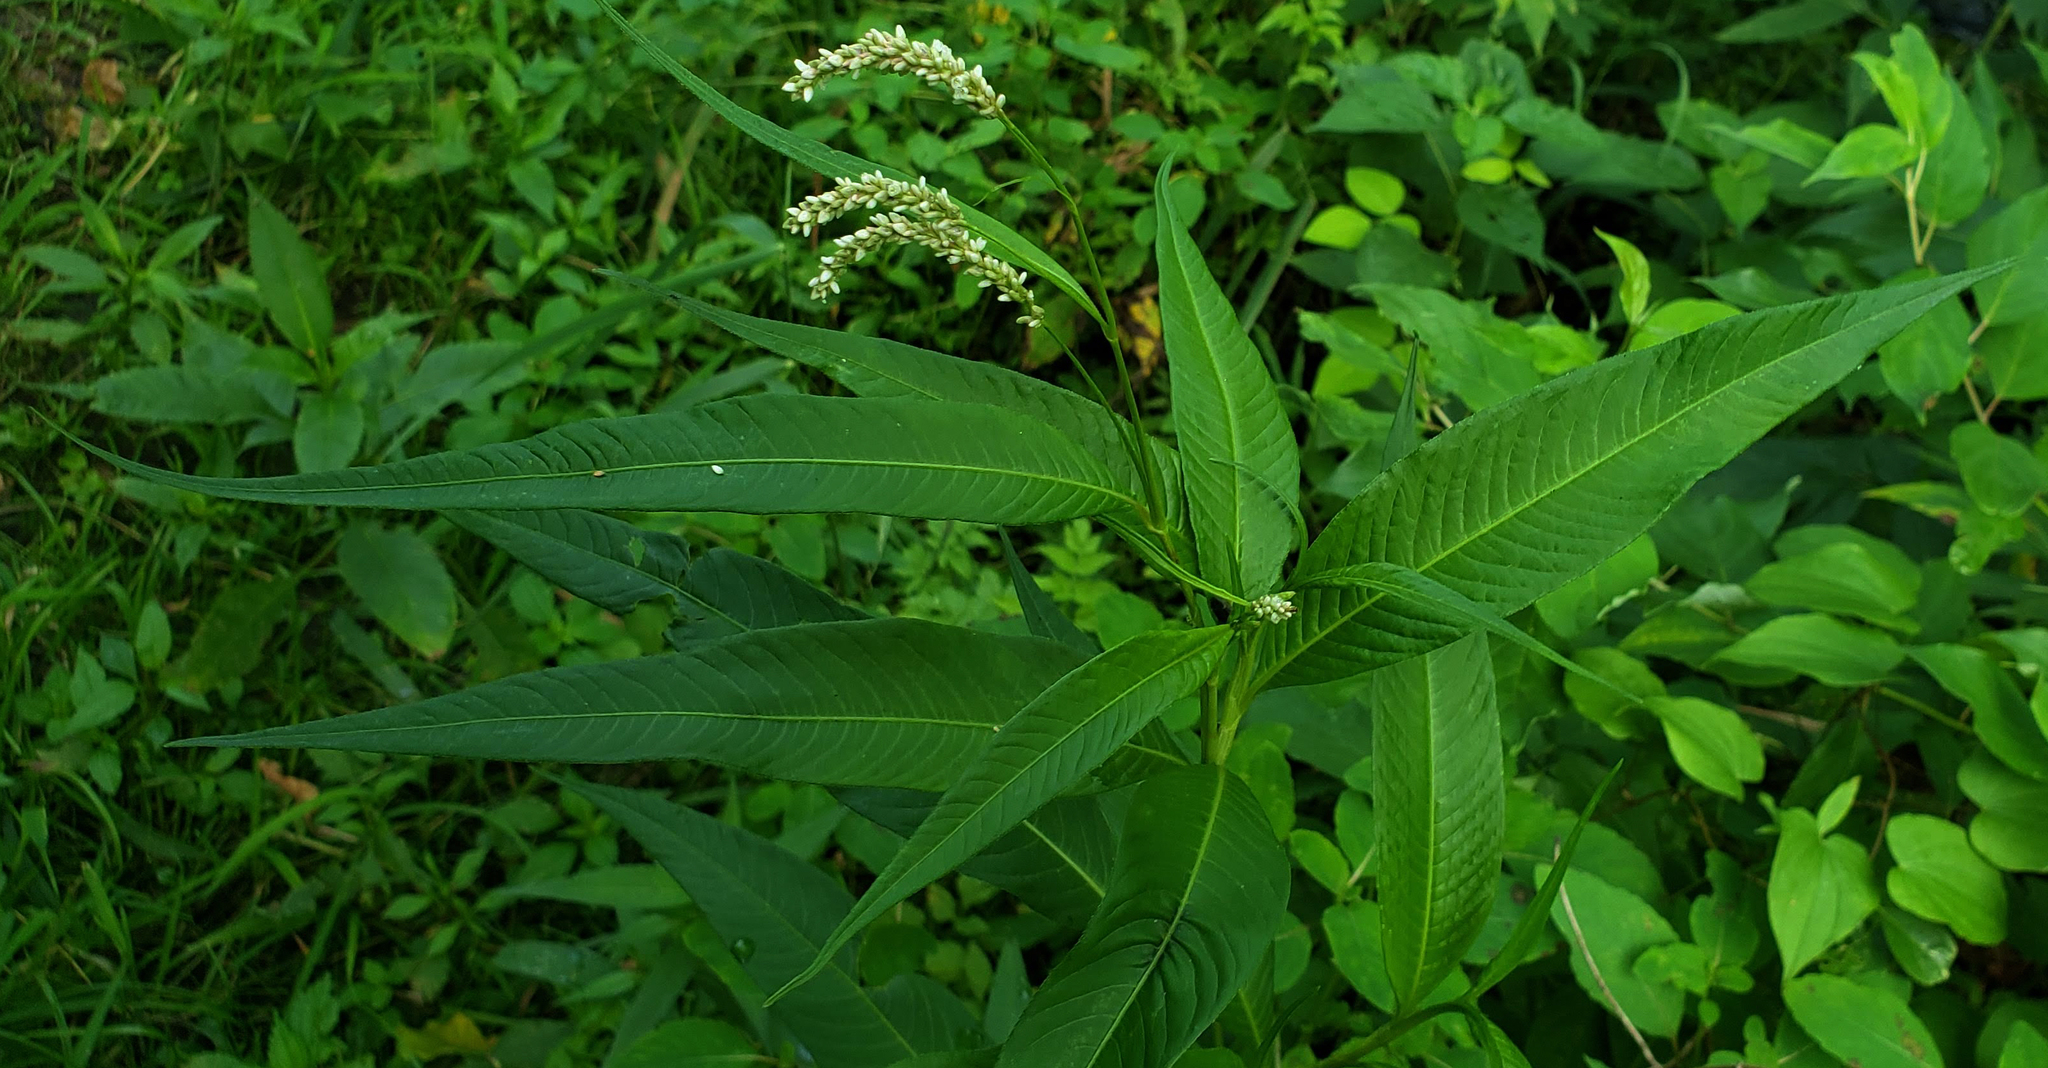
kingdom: Plantae
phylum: Tracheophyta
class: Magnoliopsida
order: Caryophyllales
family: Polygonaceae
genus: Persicaria
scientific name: Persicaria lapathifolia
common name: Curlytop knotweed
